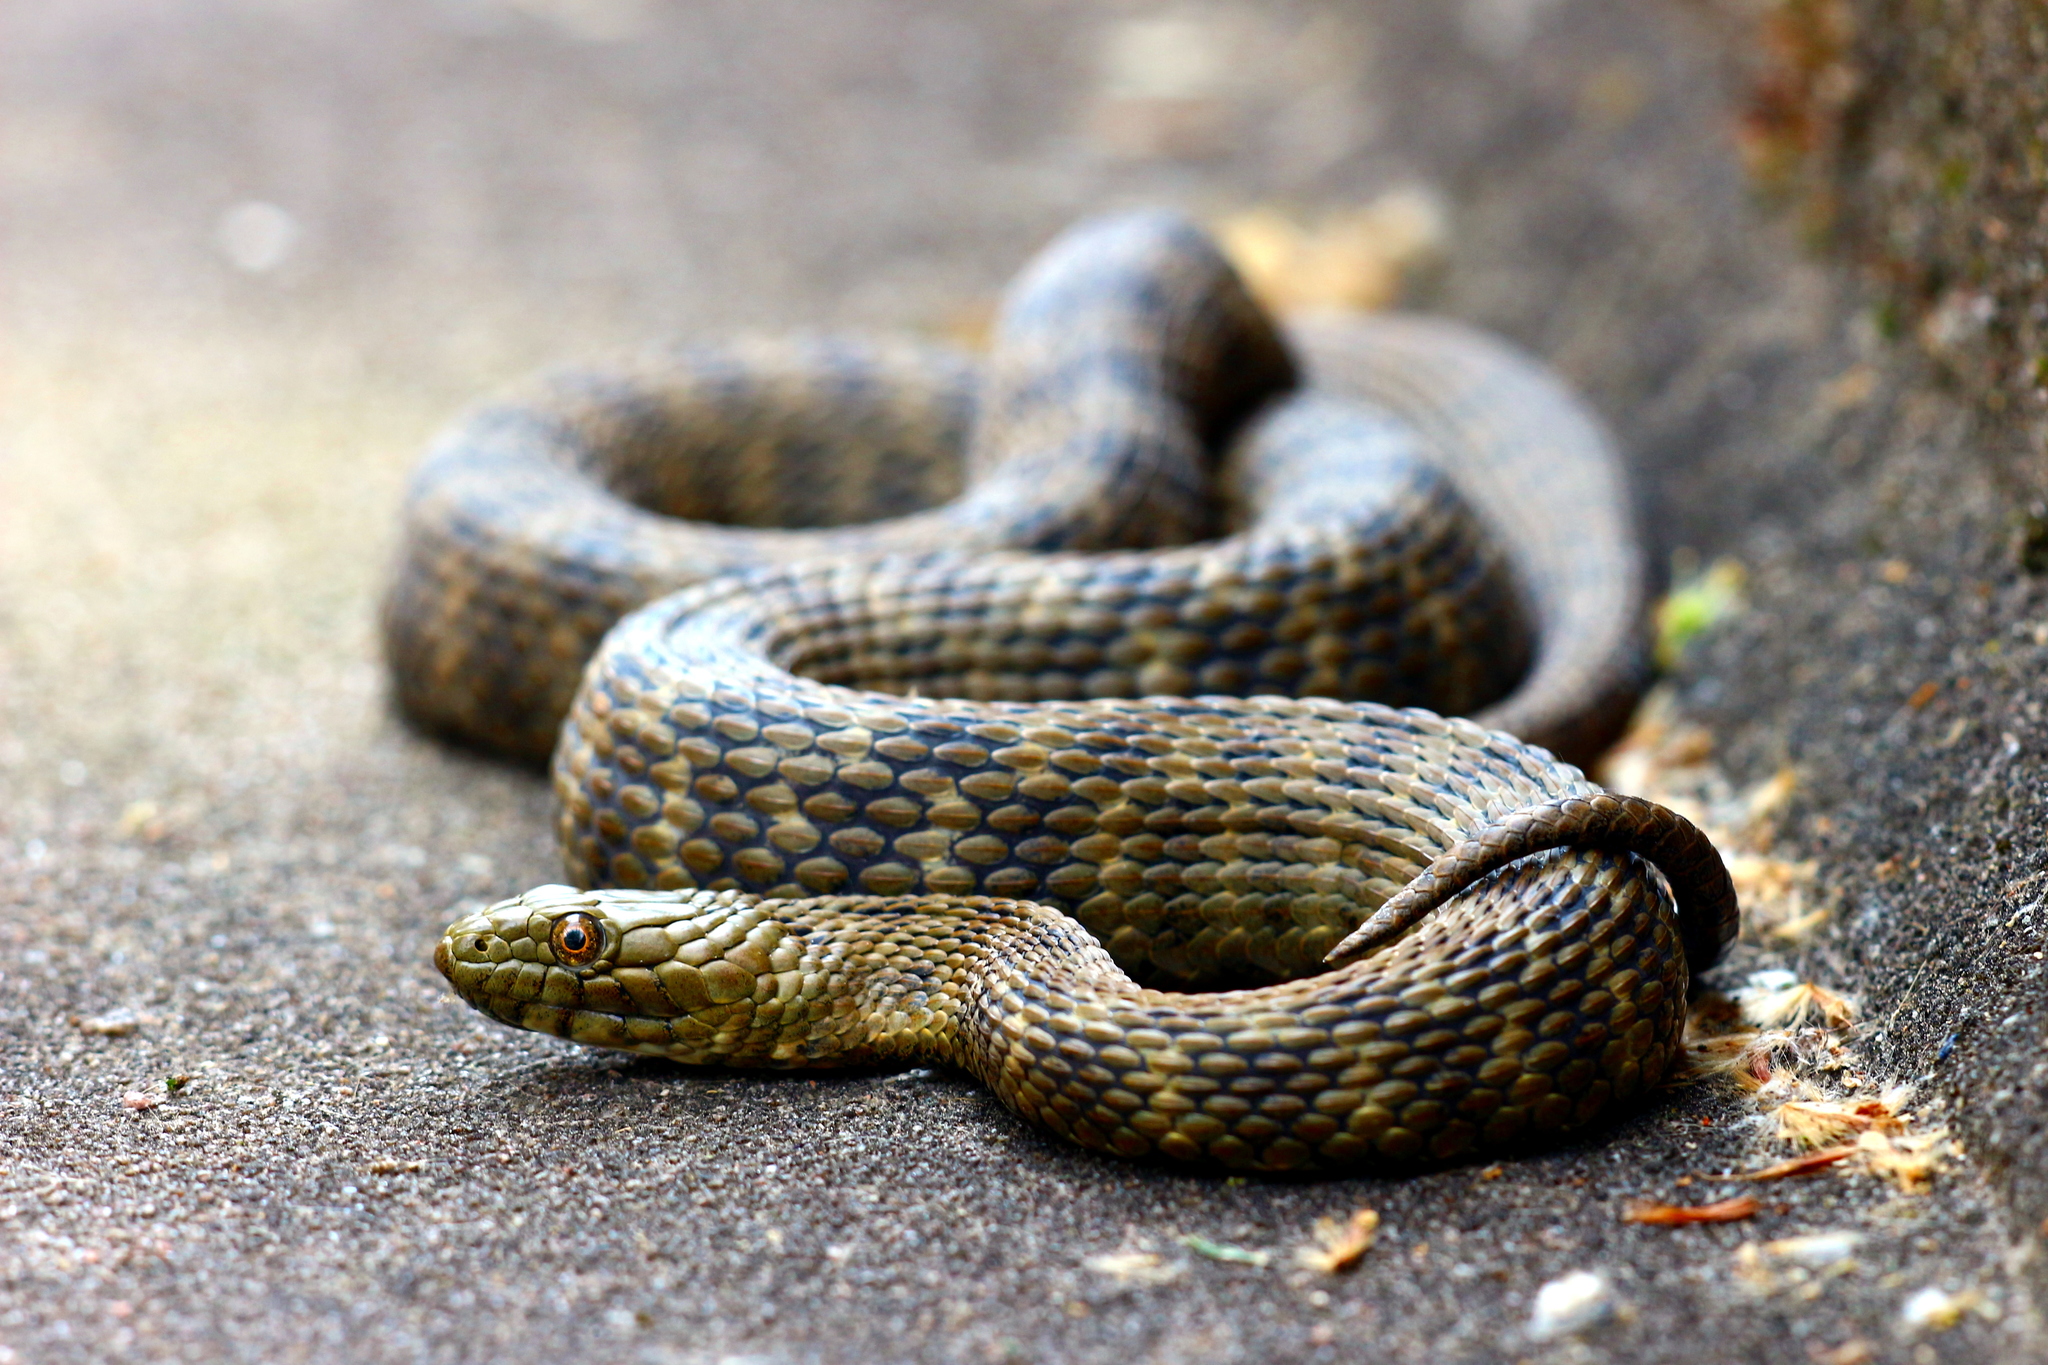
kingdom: Animalia
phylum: Chordata
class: Squamata
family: Colubridae
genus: Natrix
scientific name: Natrix tessellata
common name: Dice snake
